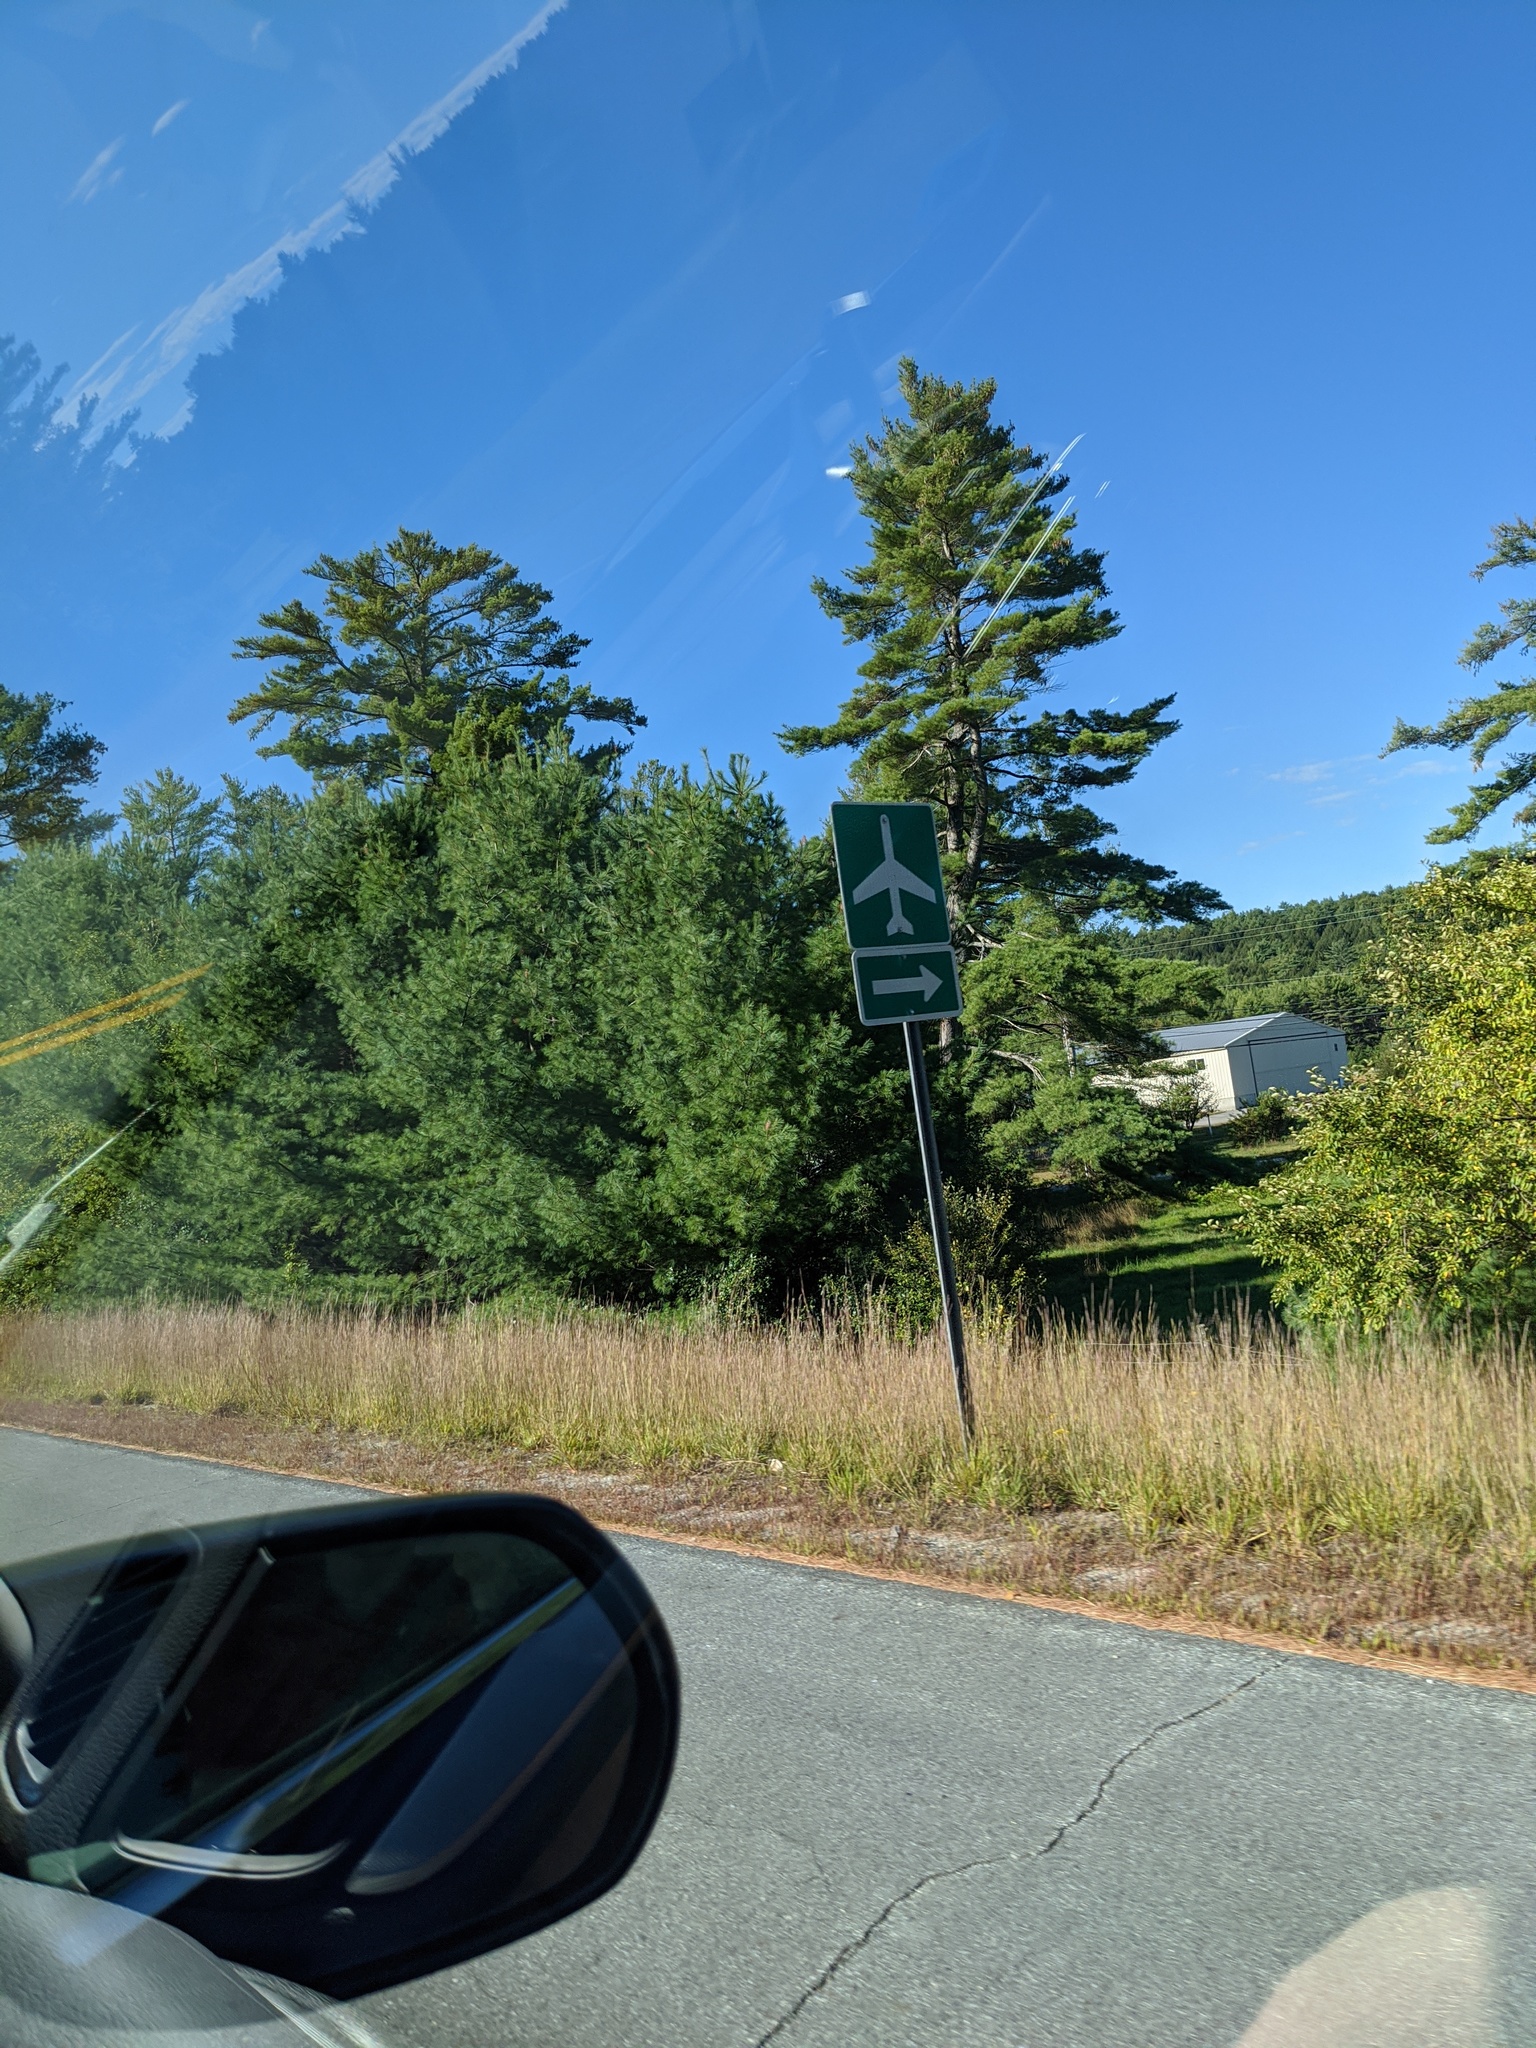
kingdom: Plantae
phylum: Tracheophyta
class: Pinopsida
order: Pinales
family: Pinaceae
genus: Pinus
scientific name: Pinus strobus
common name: Weymouth pine
